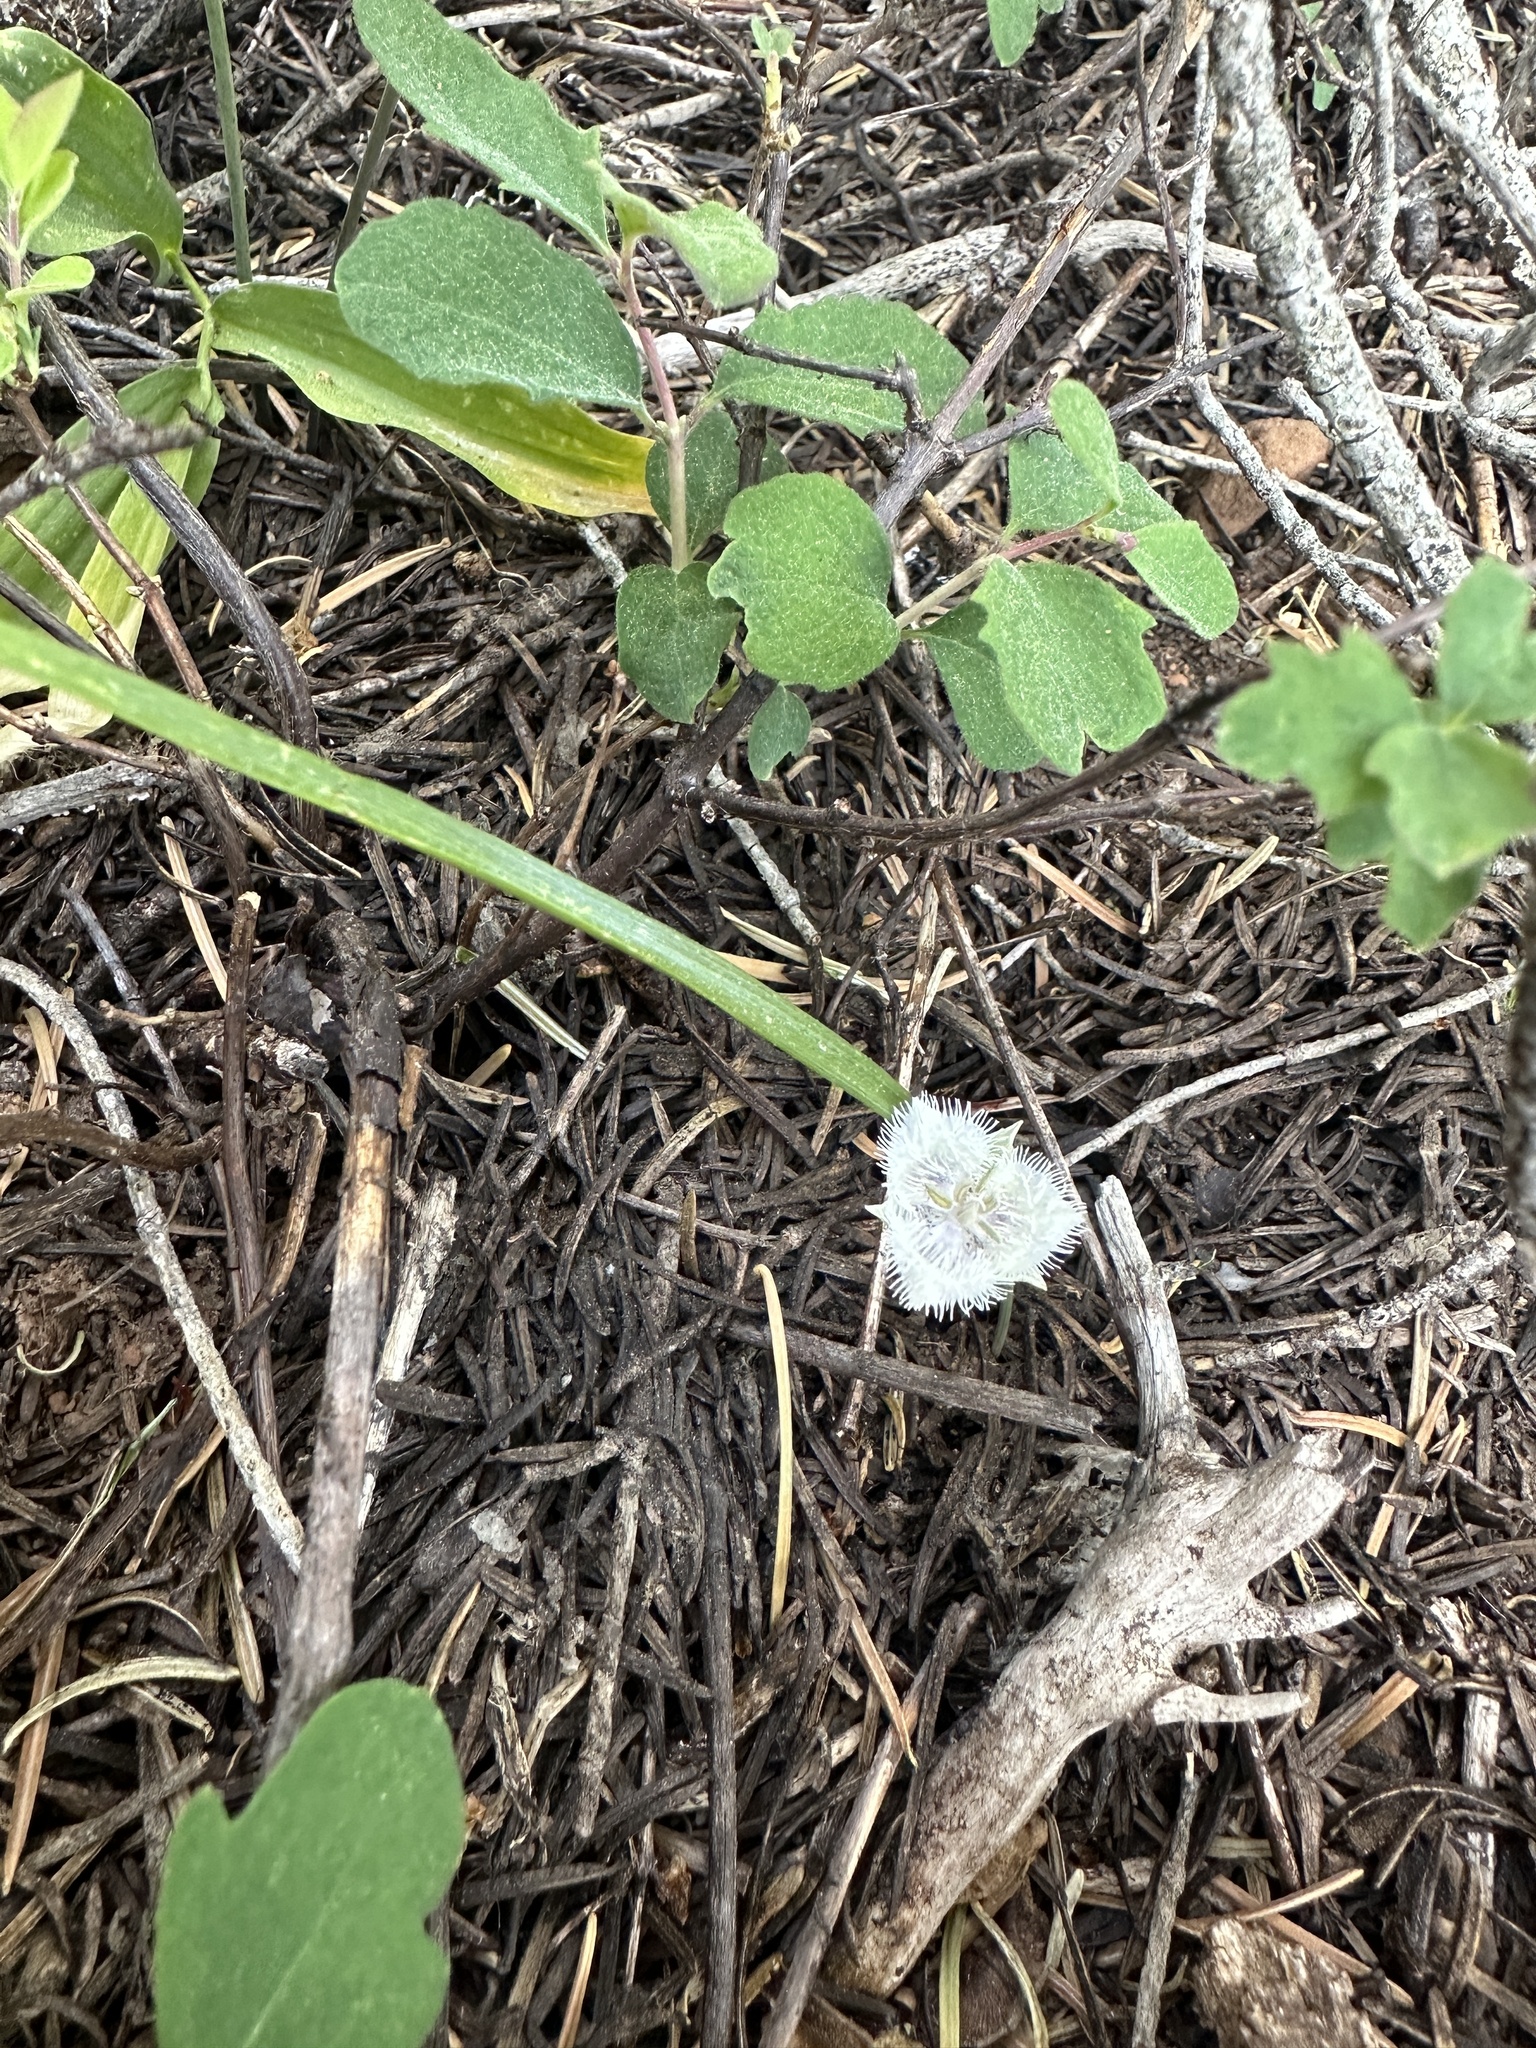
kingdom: Plantae
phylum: Tracheophyta
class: Liliopsida
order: Liliales
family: Liliaceae
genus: Calochortus
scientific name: Calochortus coeruleus
